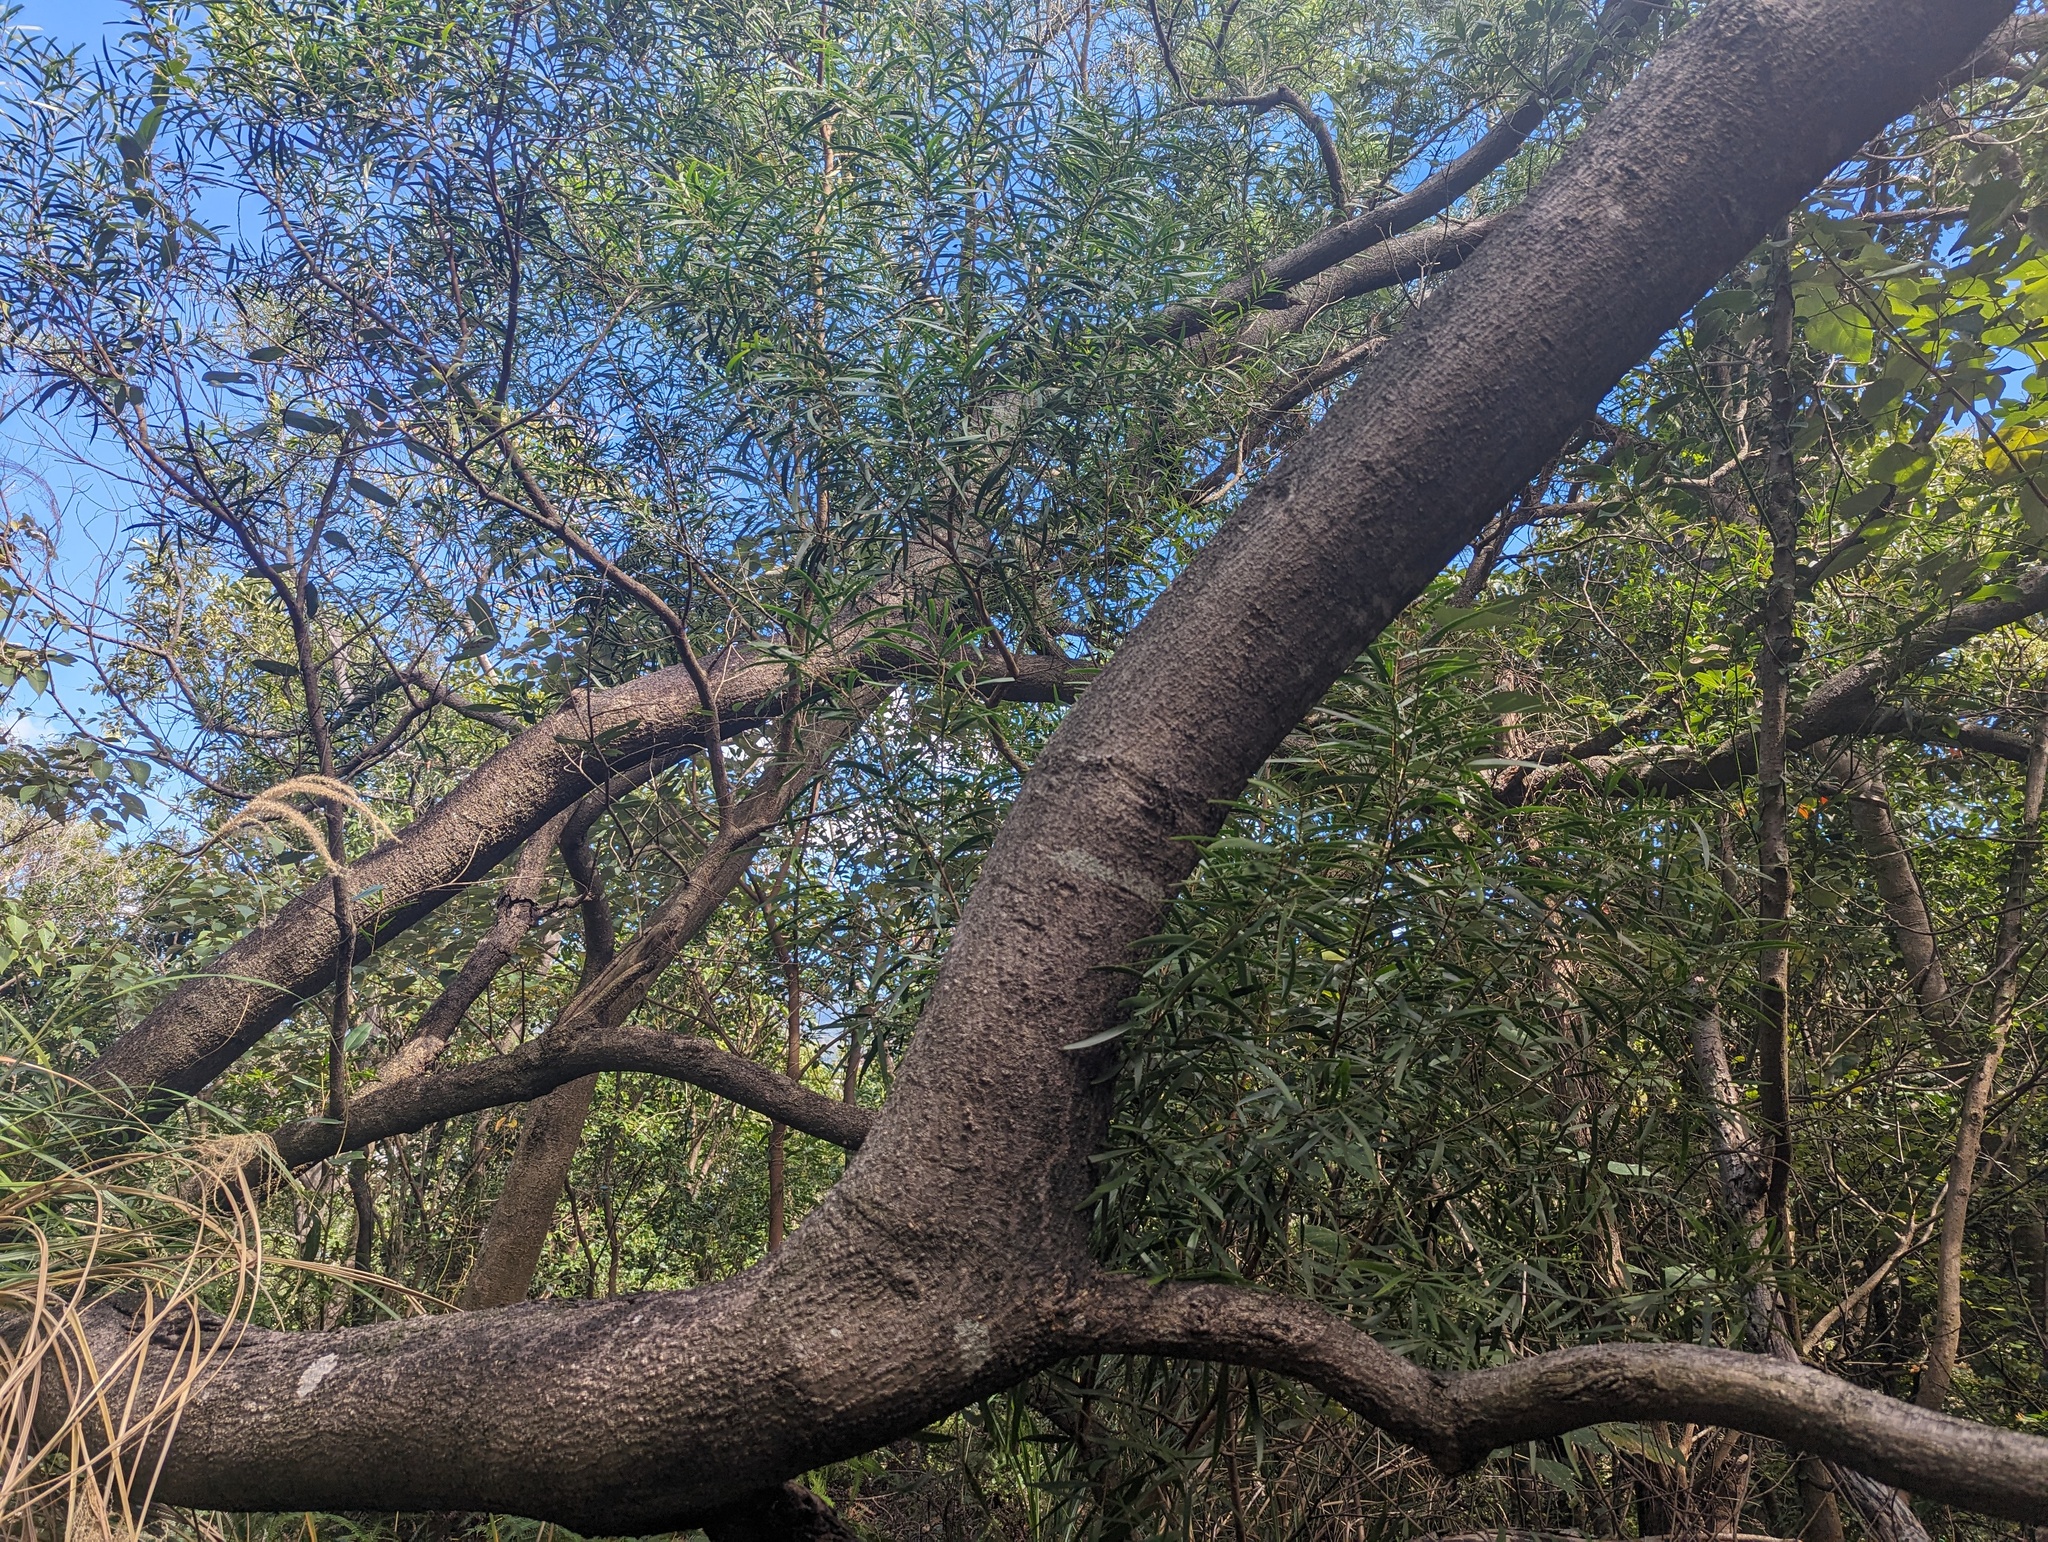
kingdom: Plantae
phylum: Tracheophyta
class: Magnoliopsida
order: Fabales
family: Fabaceae
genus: Acacia
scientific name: Acacia confusa
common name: Formosan koa
